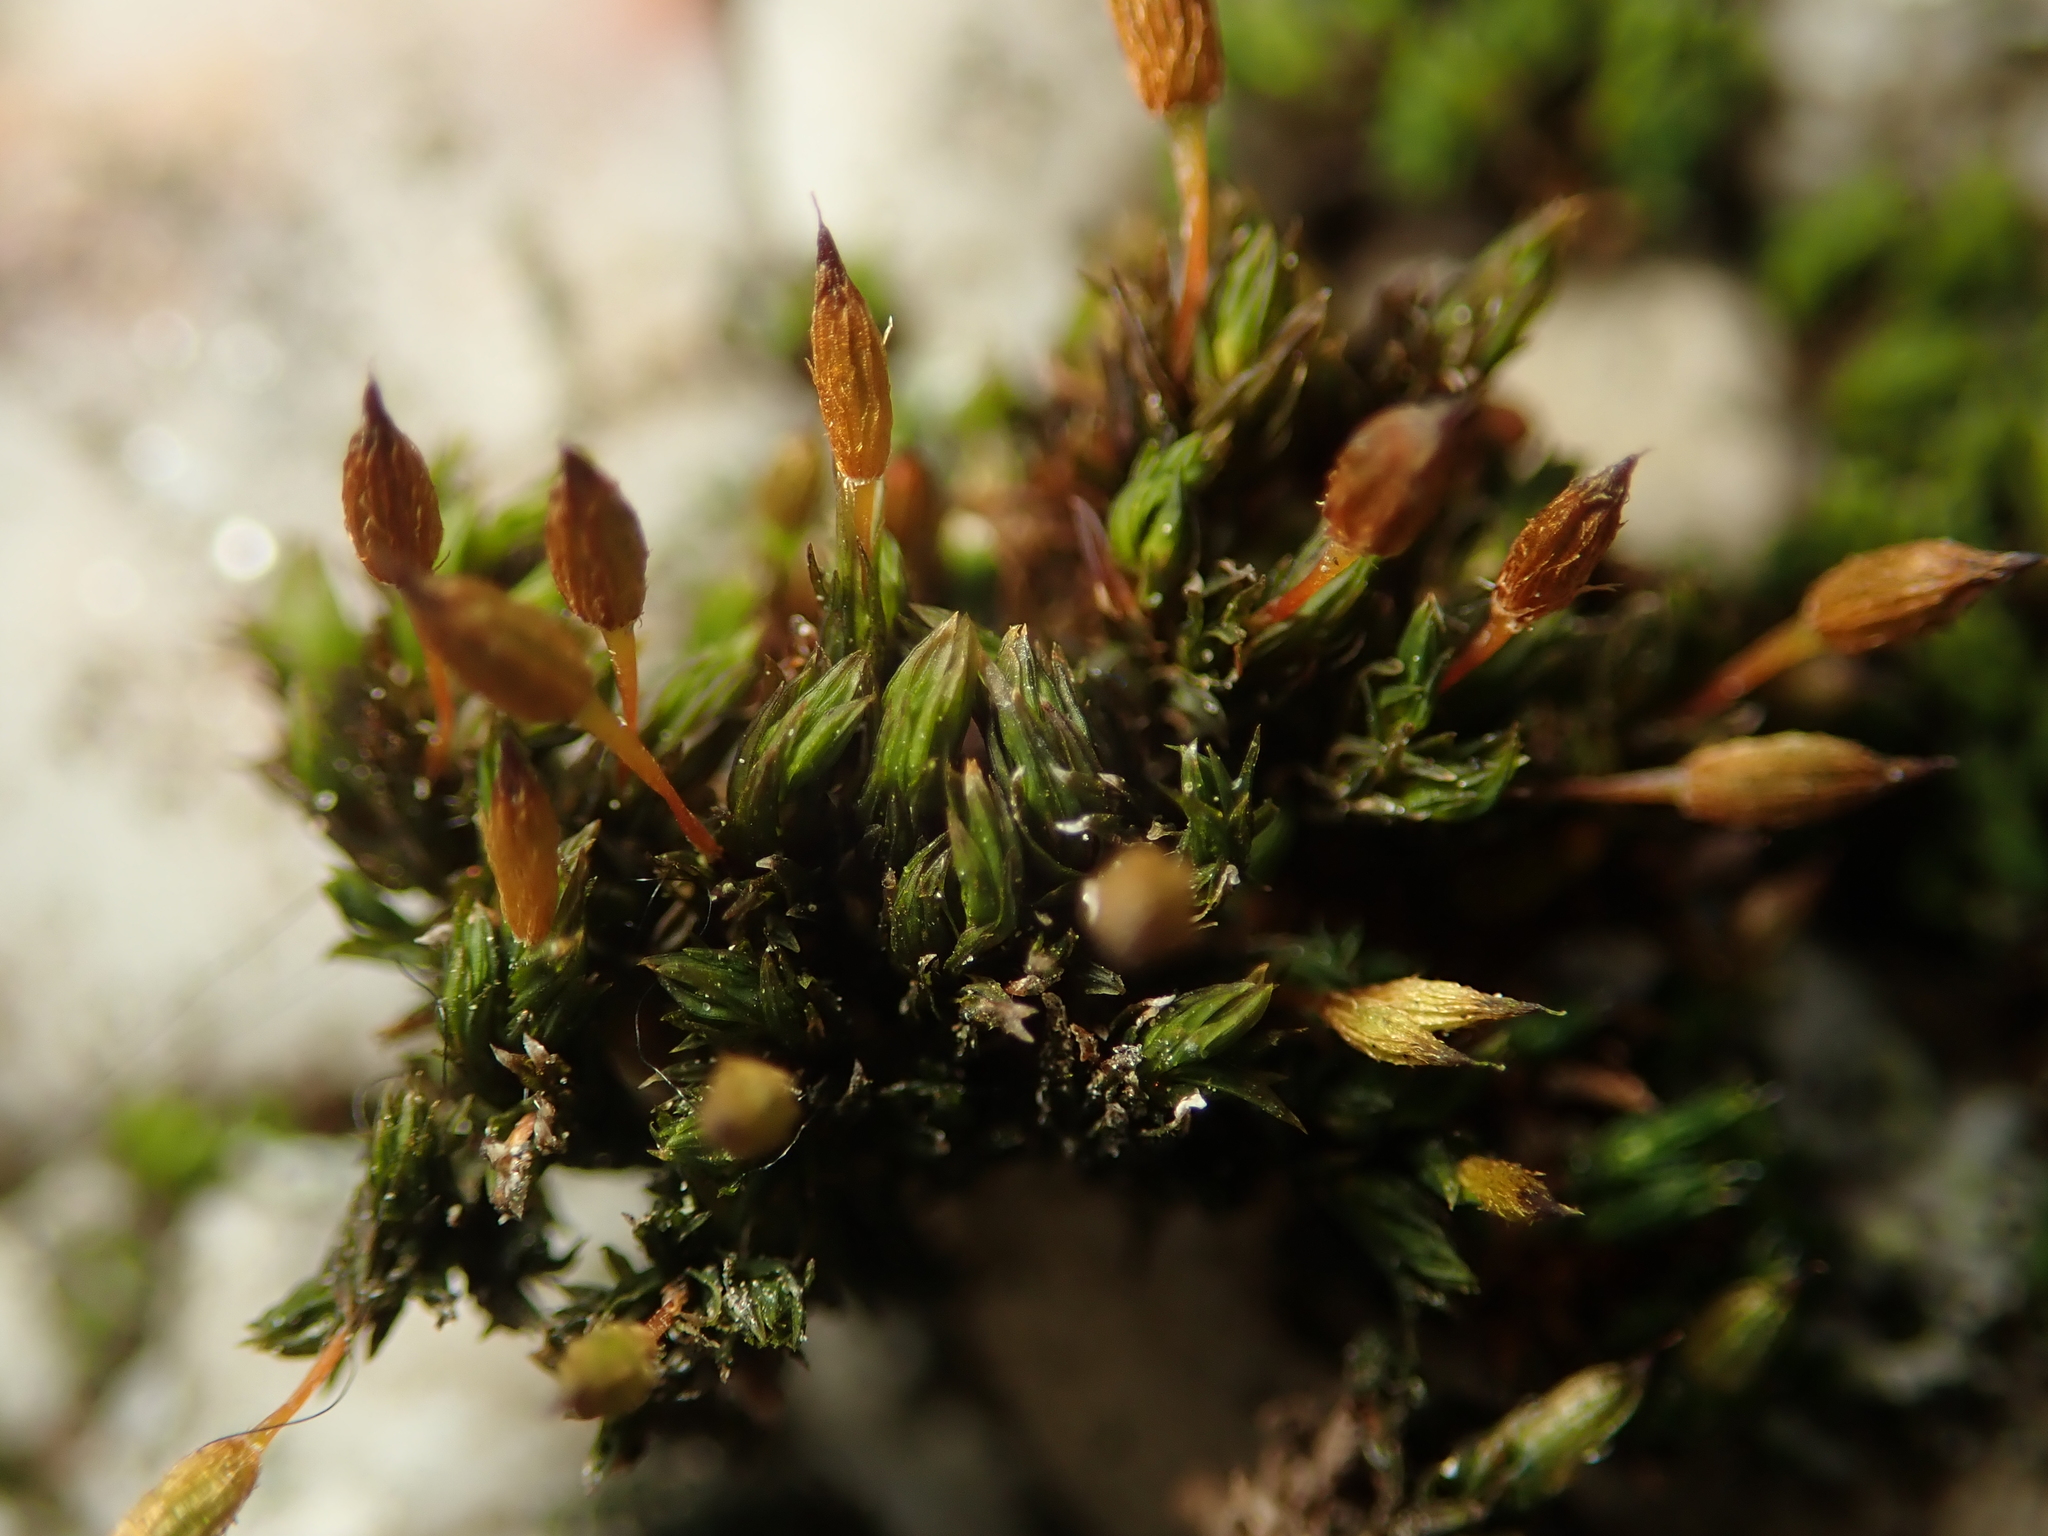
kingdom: Plantae
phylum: Bryophyta
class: Bryopsida
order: Orthotrichales
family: Orthotrichaceae
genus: Orthotrichum
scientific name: Orthotrichum anomalum
